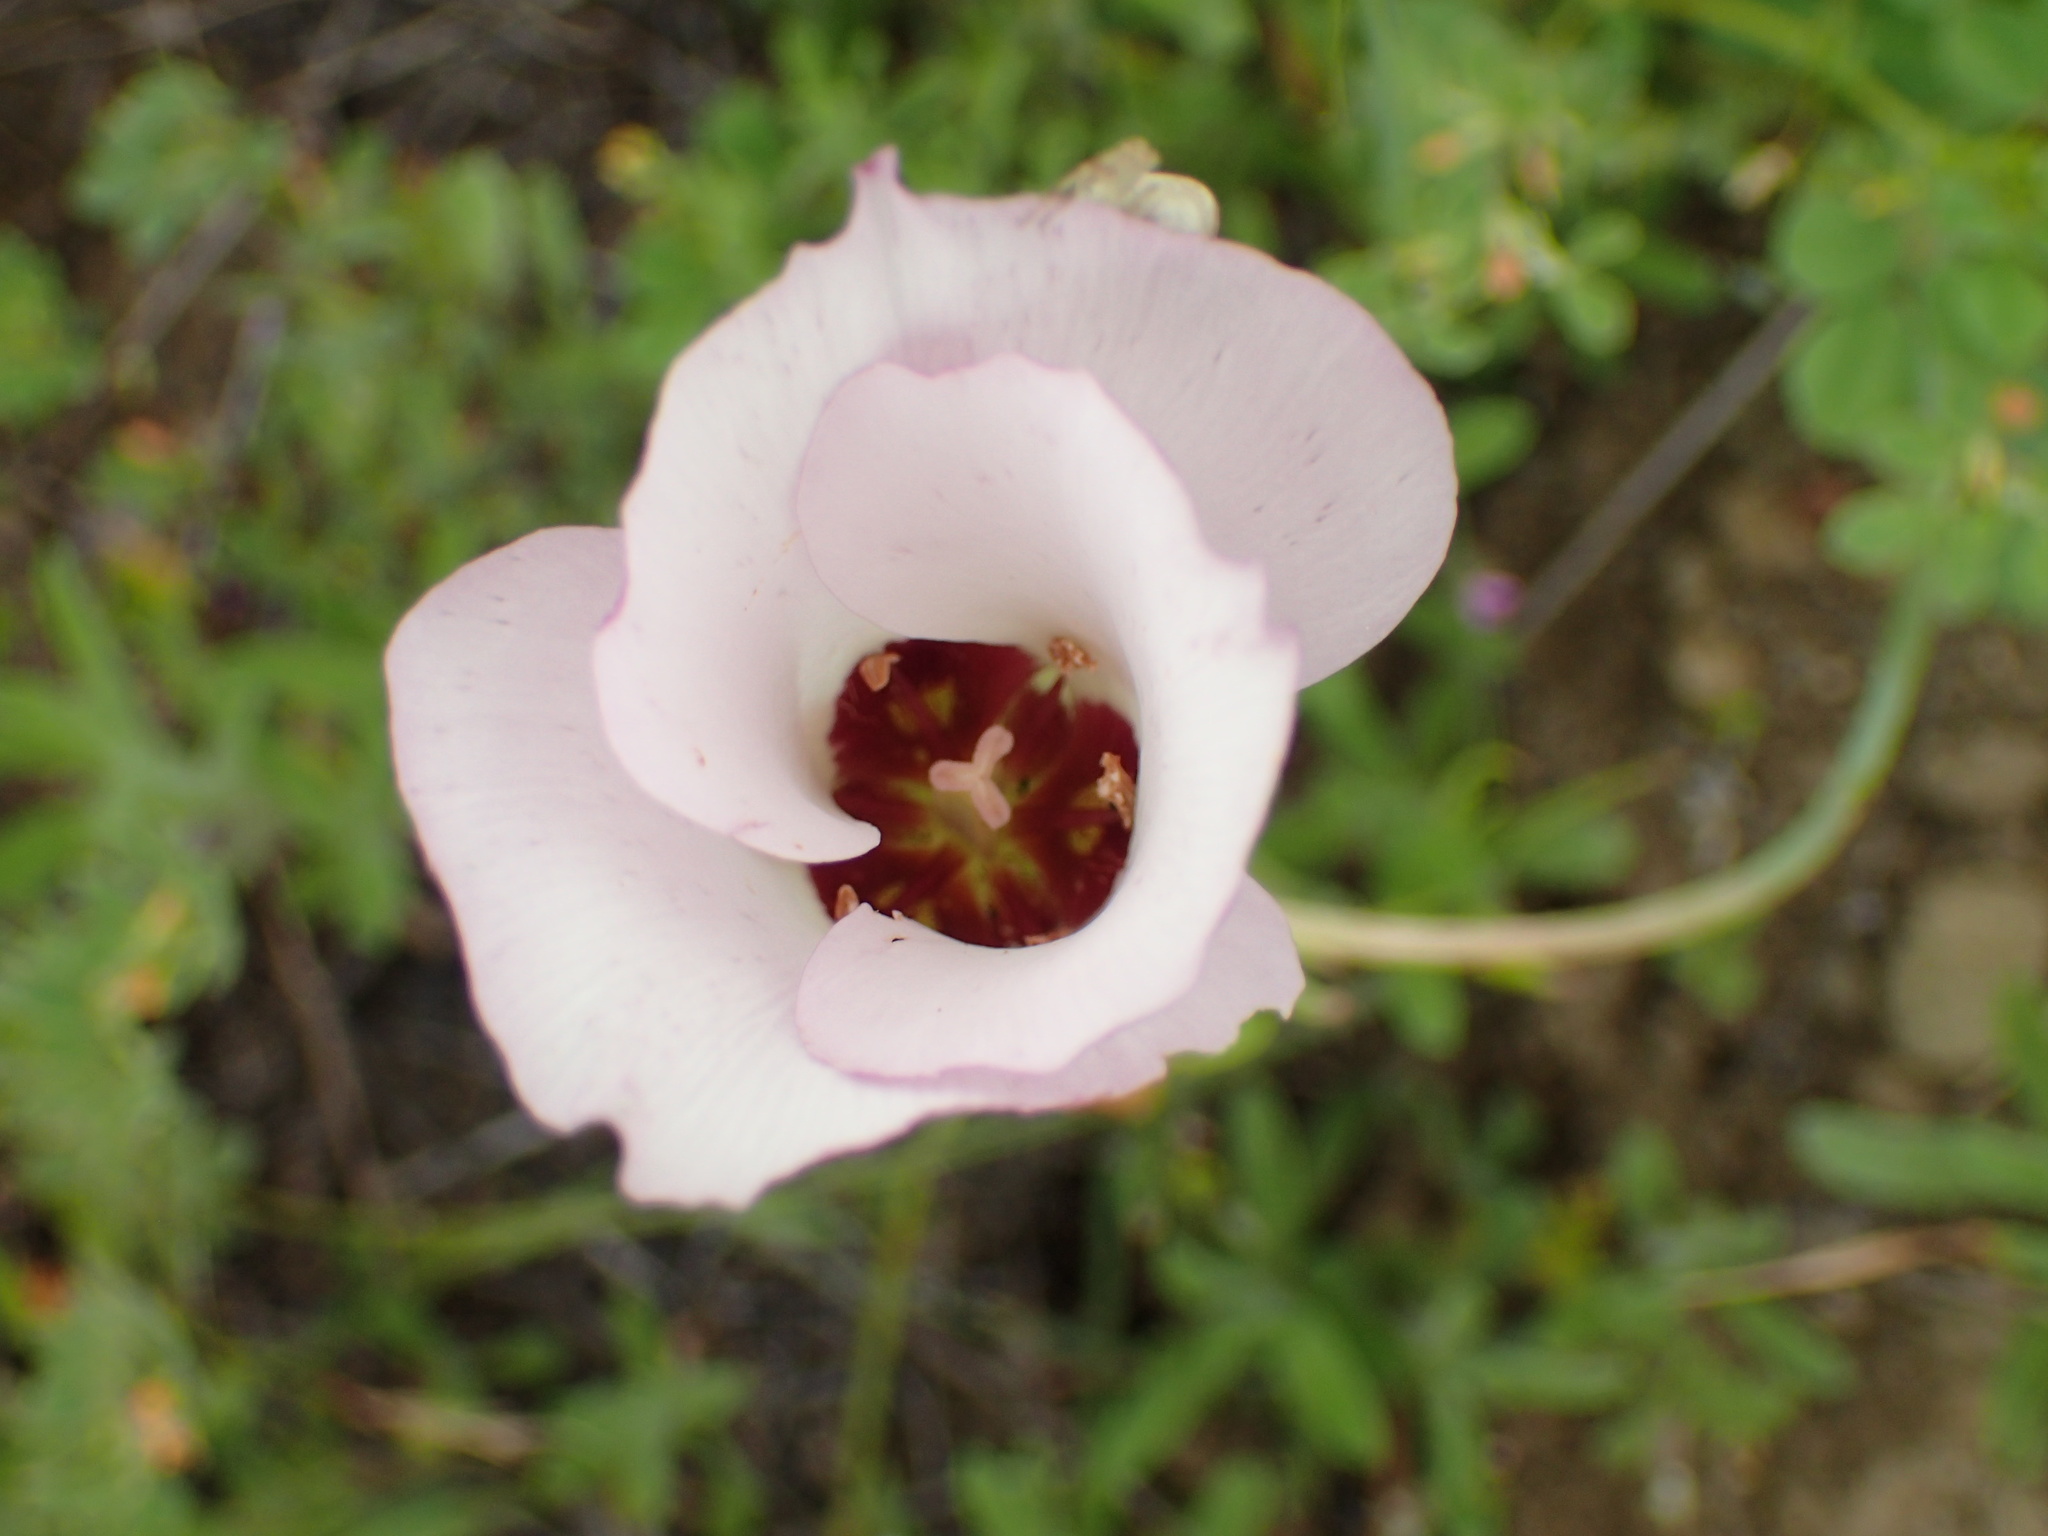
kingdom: Plantae
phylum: Tracheophyta
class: Liliopsida
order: Liliales
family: Liliaceae
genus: Calochortus
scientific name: Calochortus catalinae
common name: Catalina mariposa-lily
